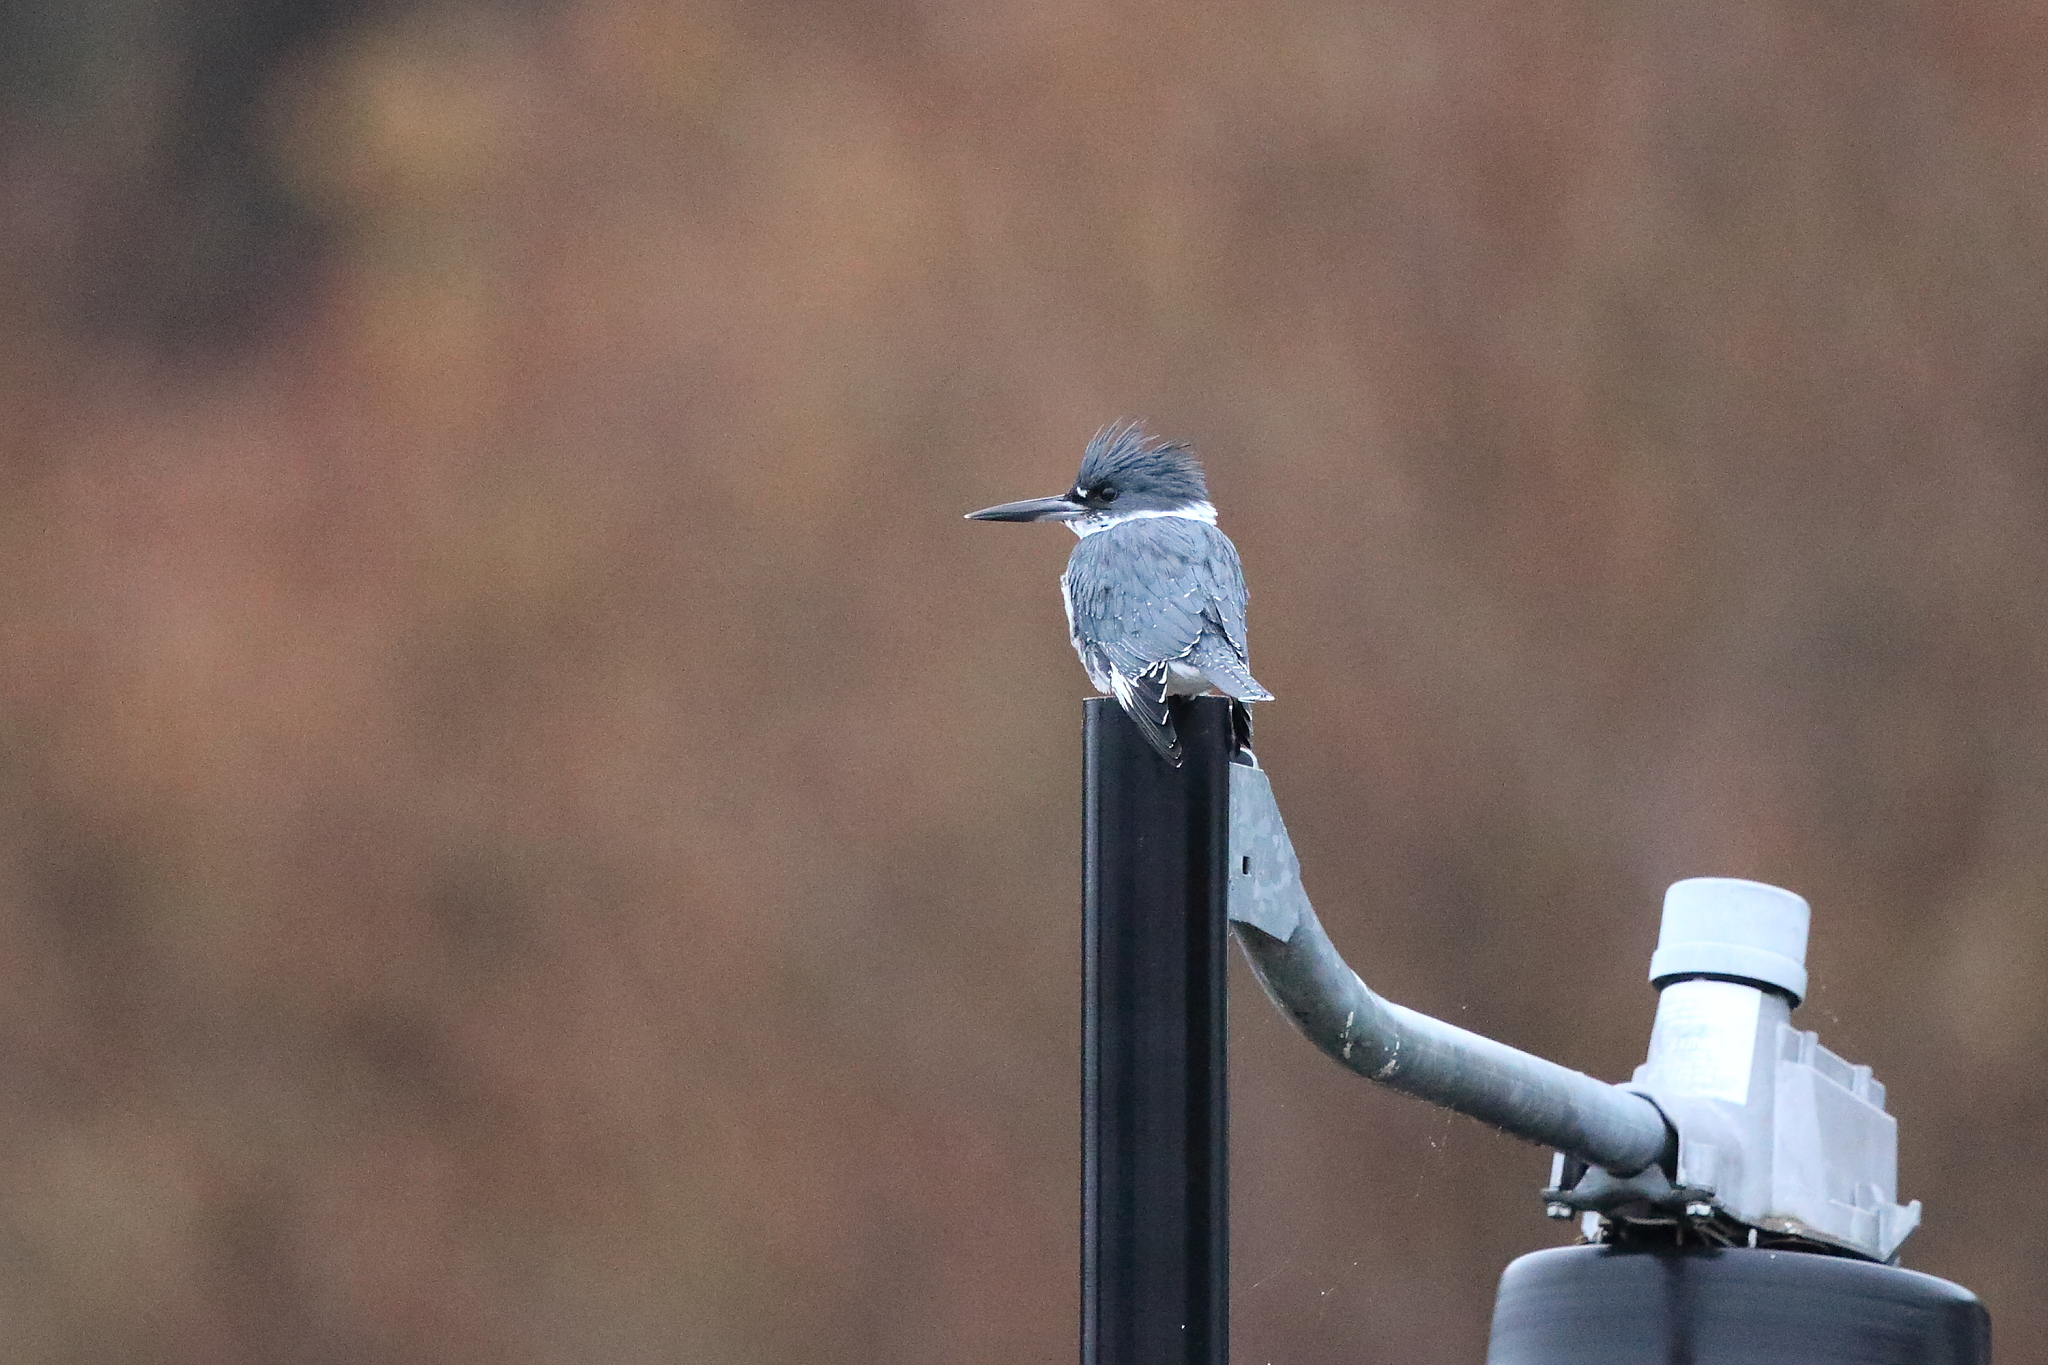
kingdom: Animalia
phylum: Chordata
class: Aves
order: Coraciiformes
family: Alcedinidae
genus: Megaceryle
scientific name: Megaceryle alcyon
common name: Belted kingfisher
